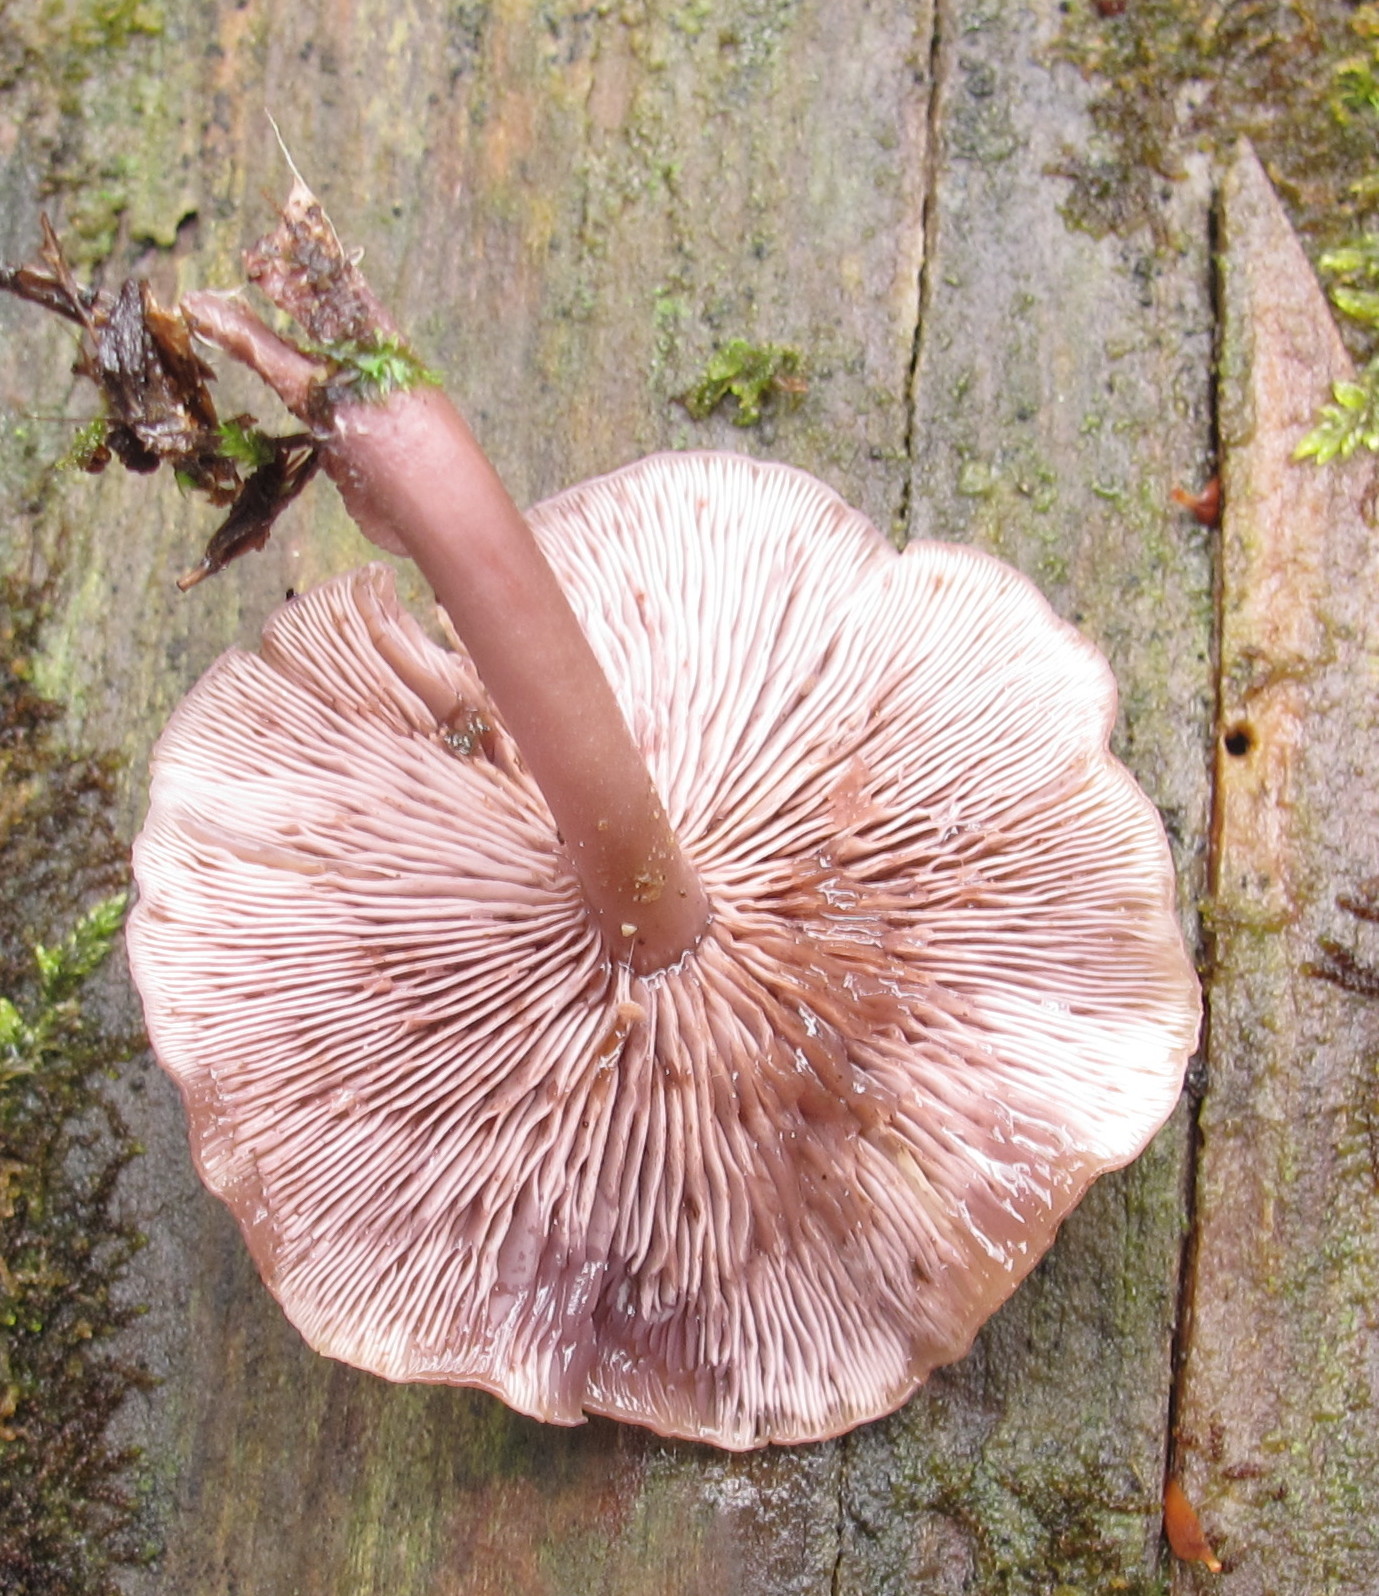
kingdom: Fungi
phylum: Basidiomycota
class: Agaricomycetes
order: Agaricales
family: Marasmiaceae
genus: Baeospora
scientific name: Baeospora myriadophylla
